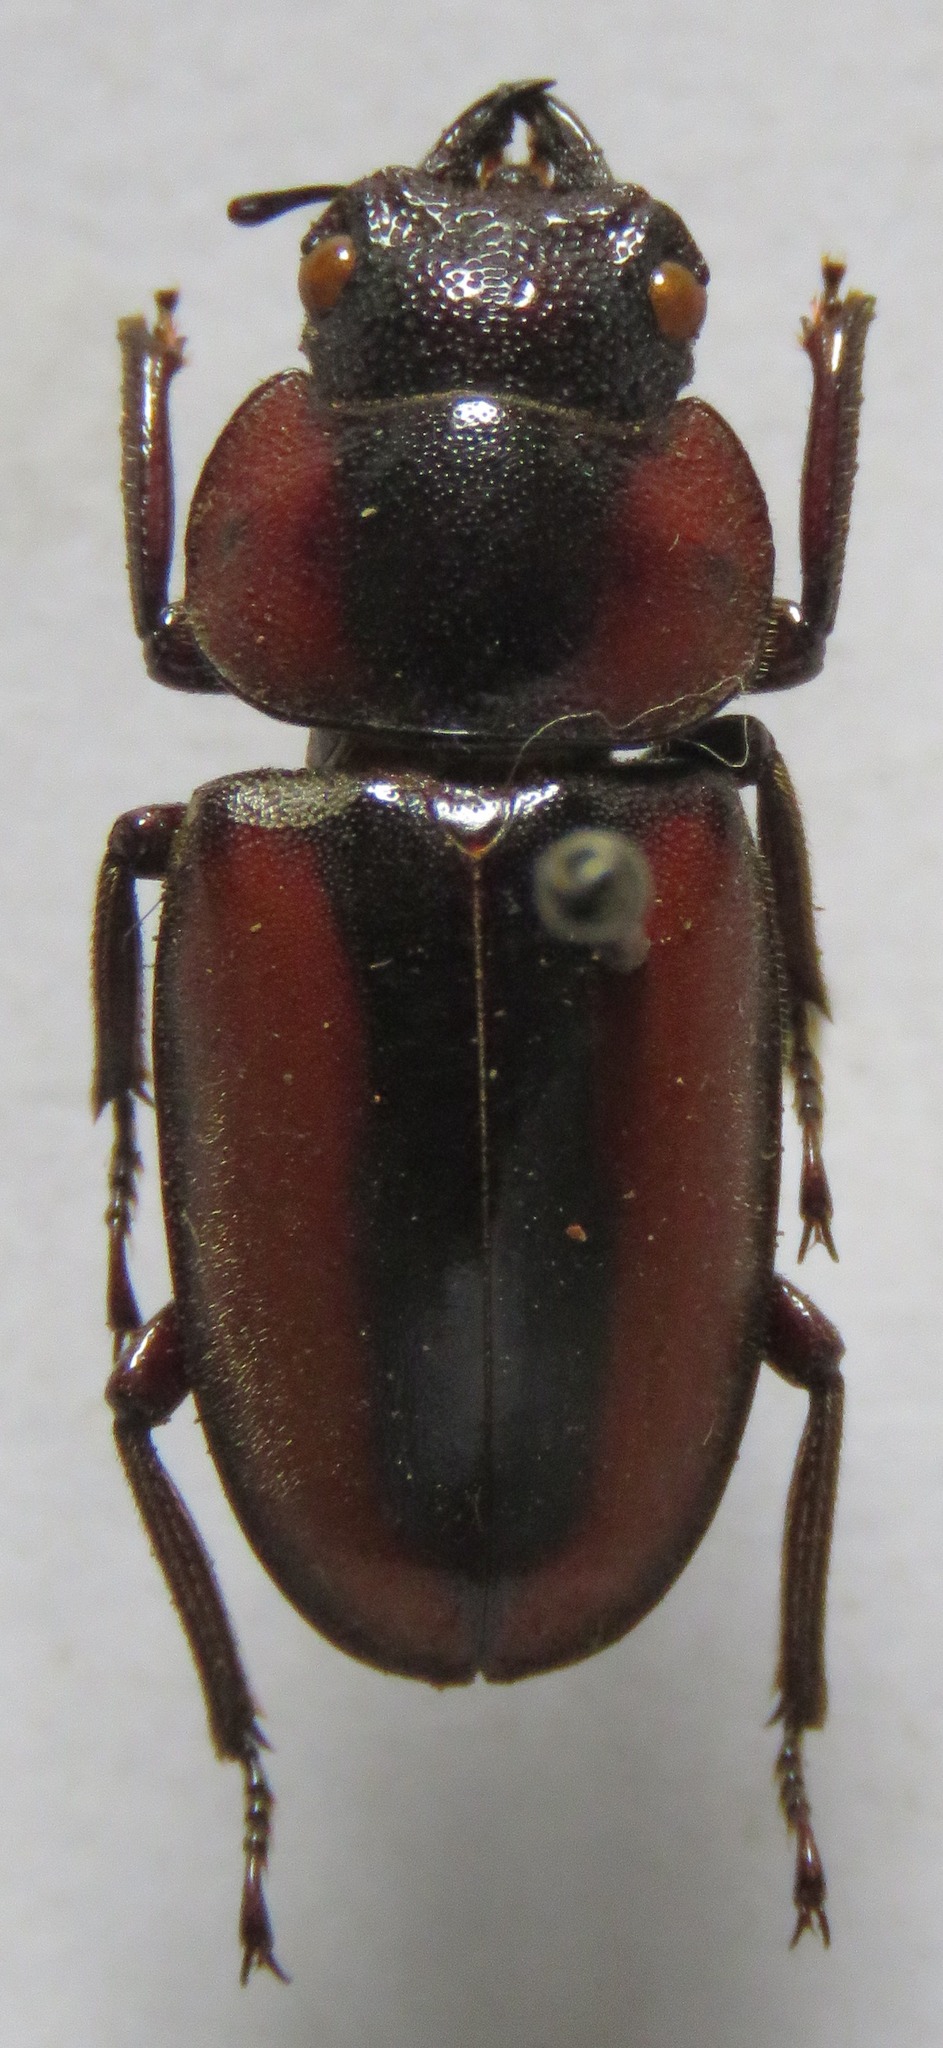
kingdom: Animalia
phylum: Arthropoda
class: Insecta
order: Coleoptera
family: Lucanidae
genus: Prosopocoilus
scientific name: Prosopocoilus kasaiensis
